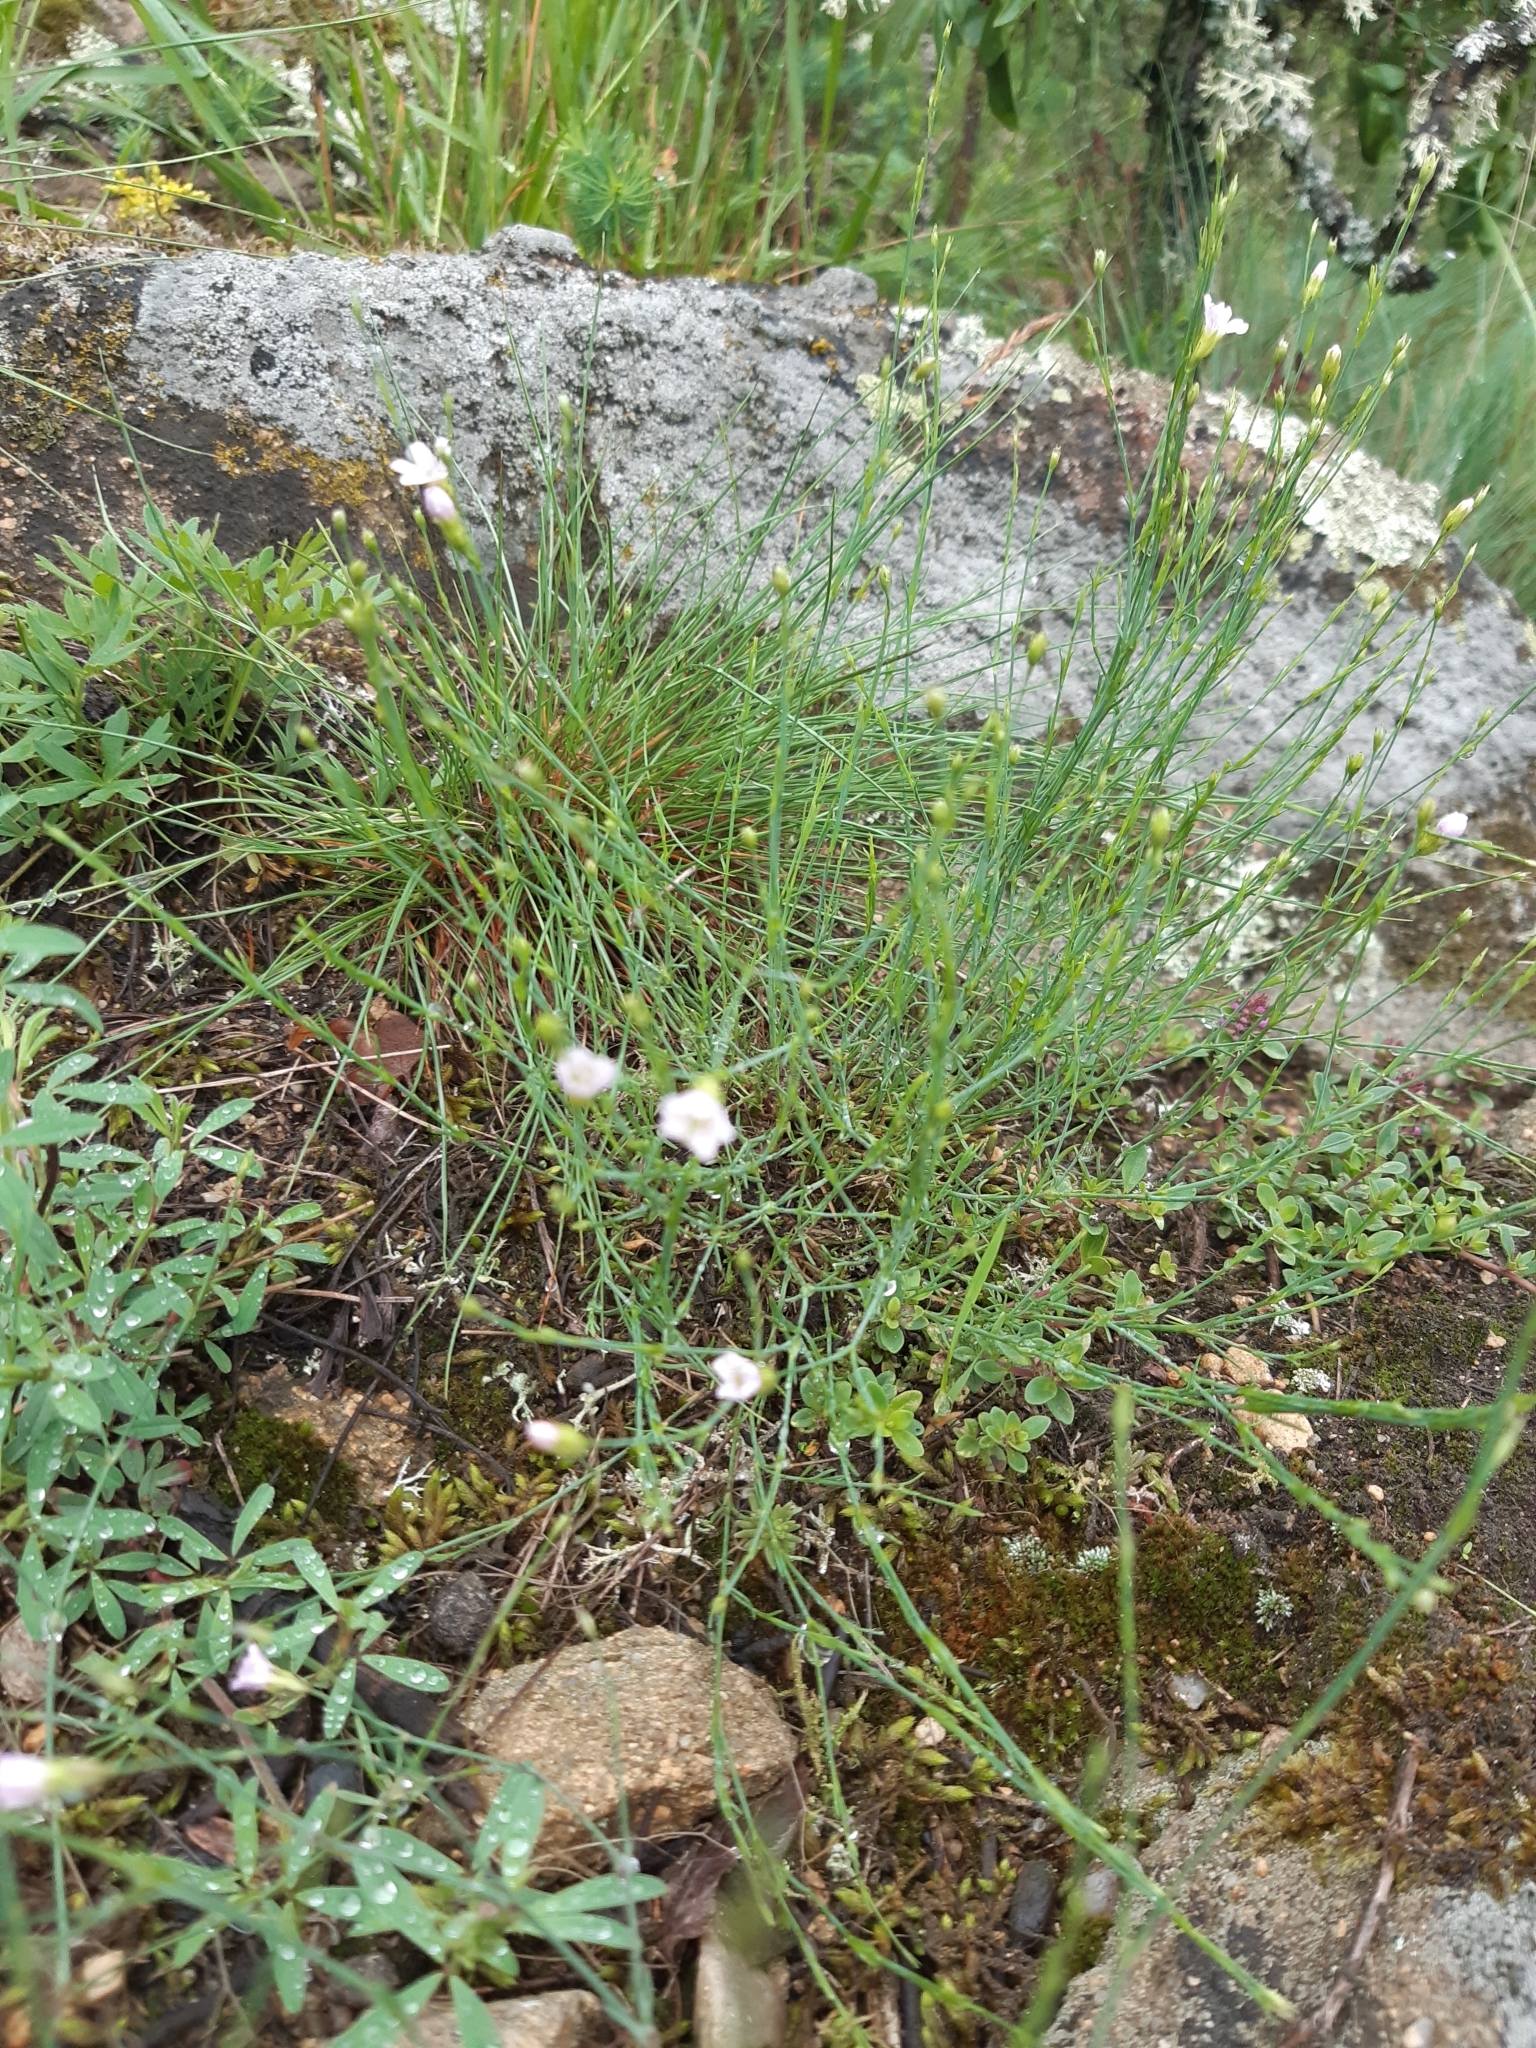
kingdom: Plantae
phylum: Tracheophyta
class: Magnoliopsida
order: Caryophyllales
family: Caryophyllaceae
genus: Petrorhagia
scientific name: Petrorhagia saxifraga
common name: Tunicflower
